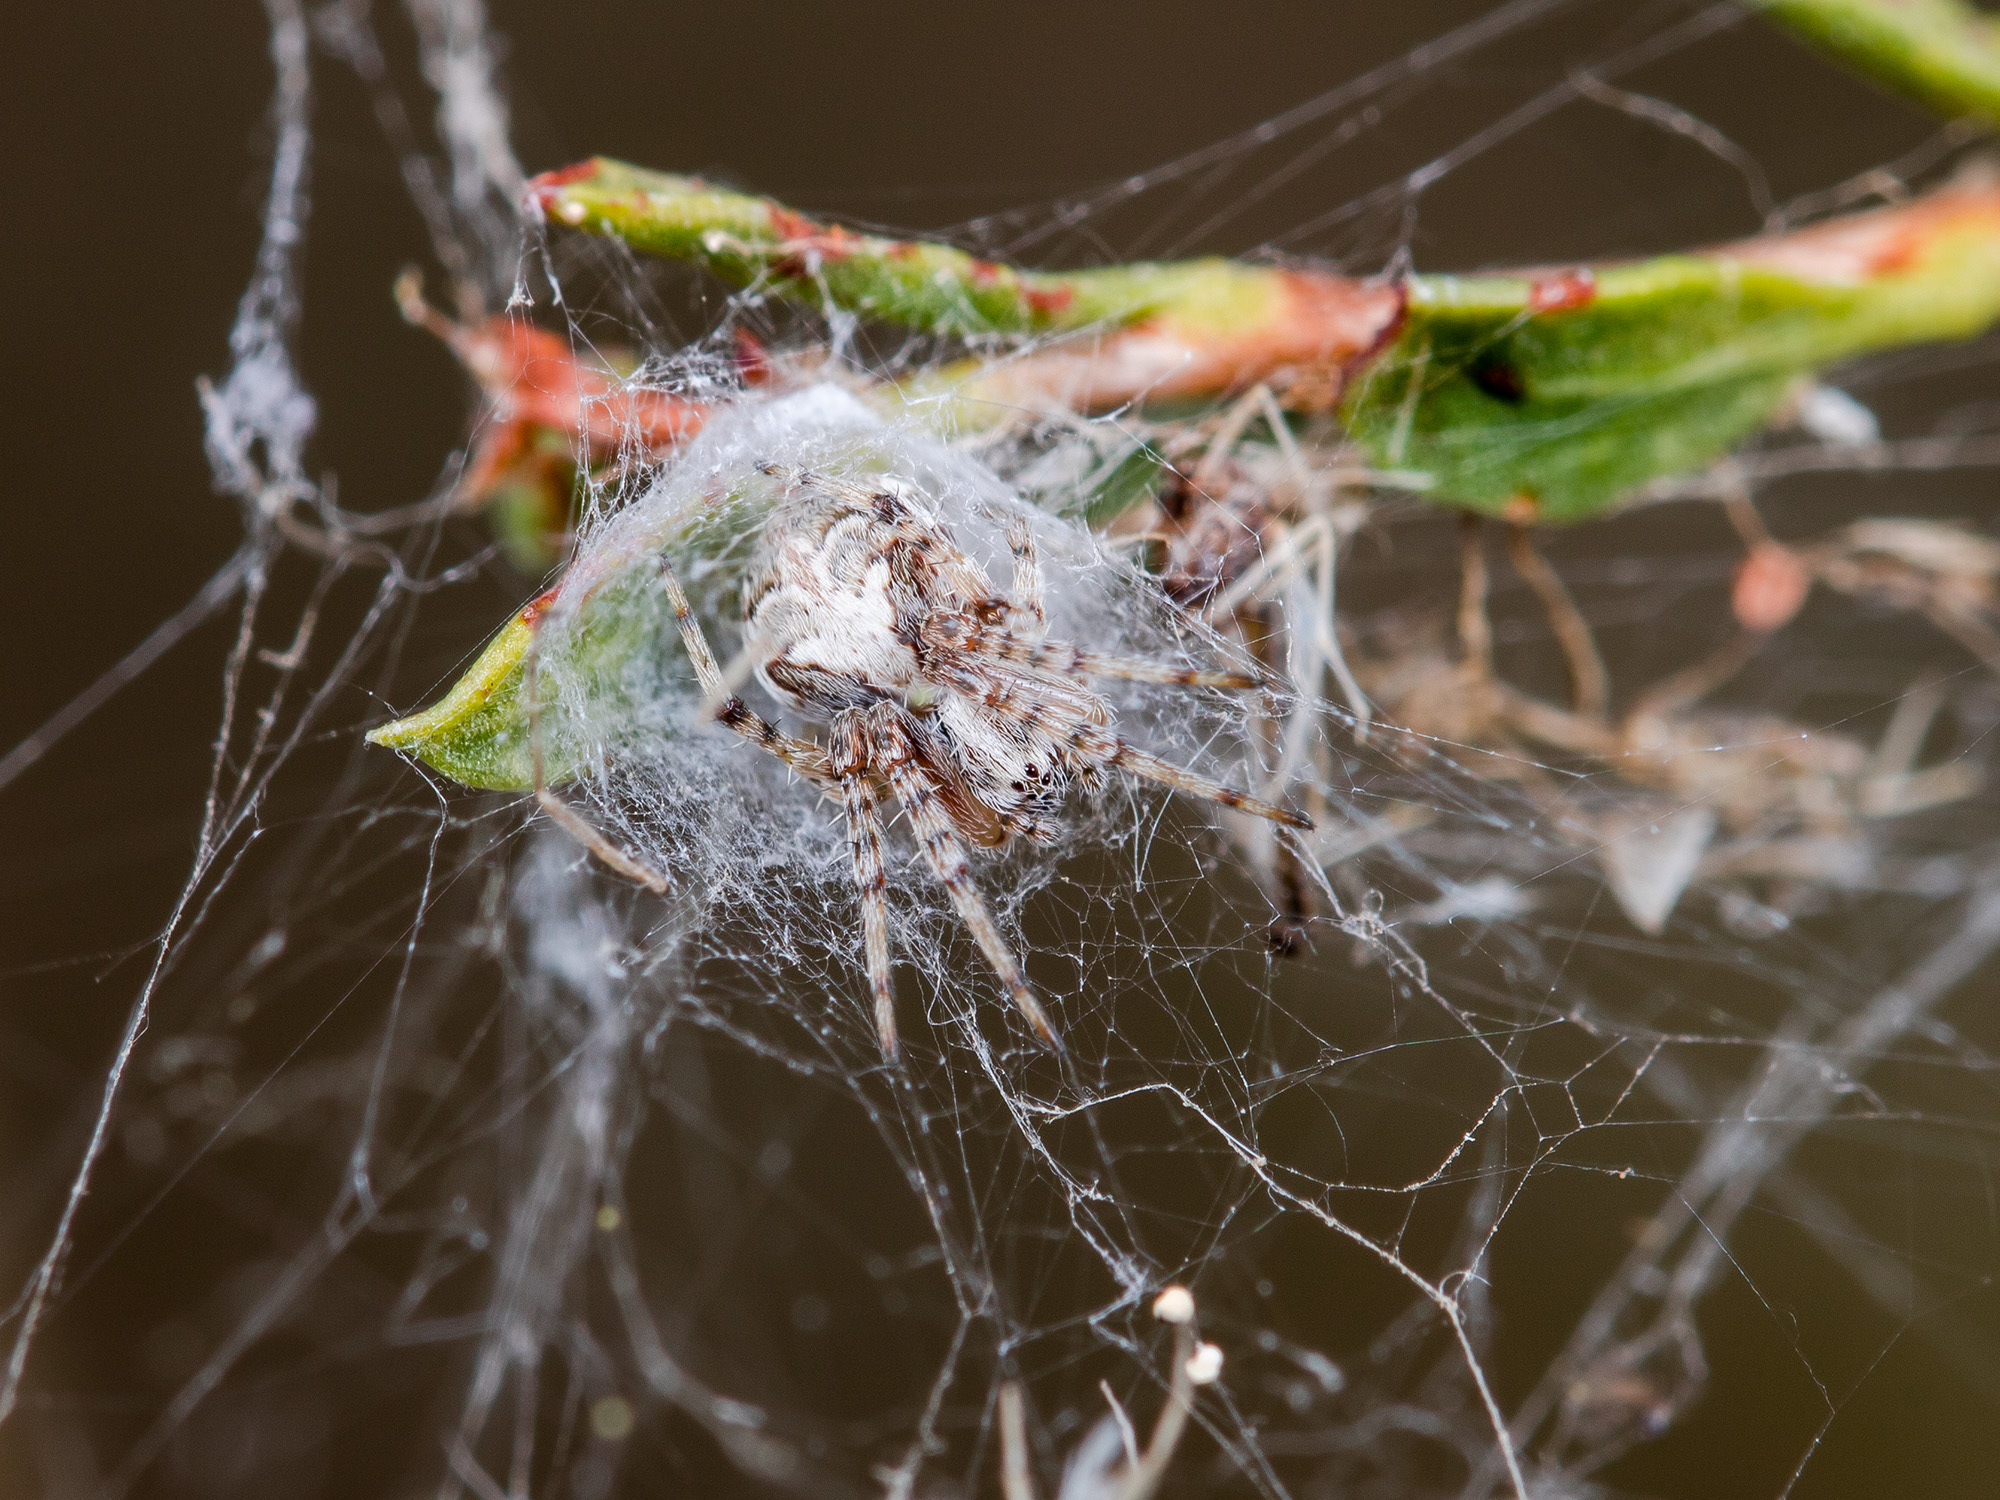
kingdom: Animalia
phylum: Arthropoda
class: Arachnida
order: Araneae
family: Araneidae
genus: Araneus
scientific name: Araneus pallasi
